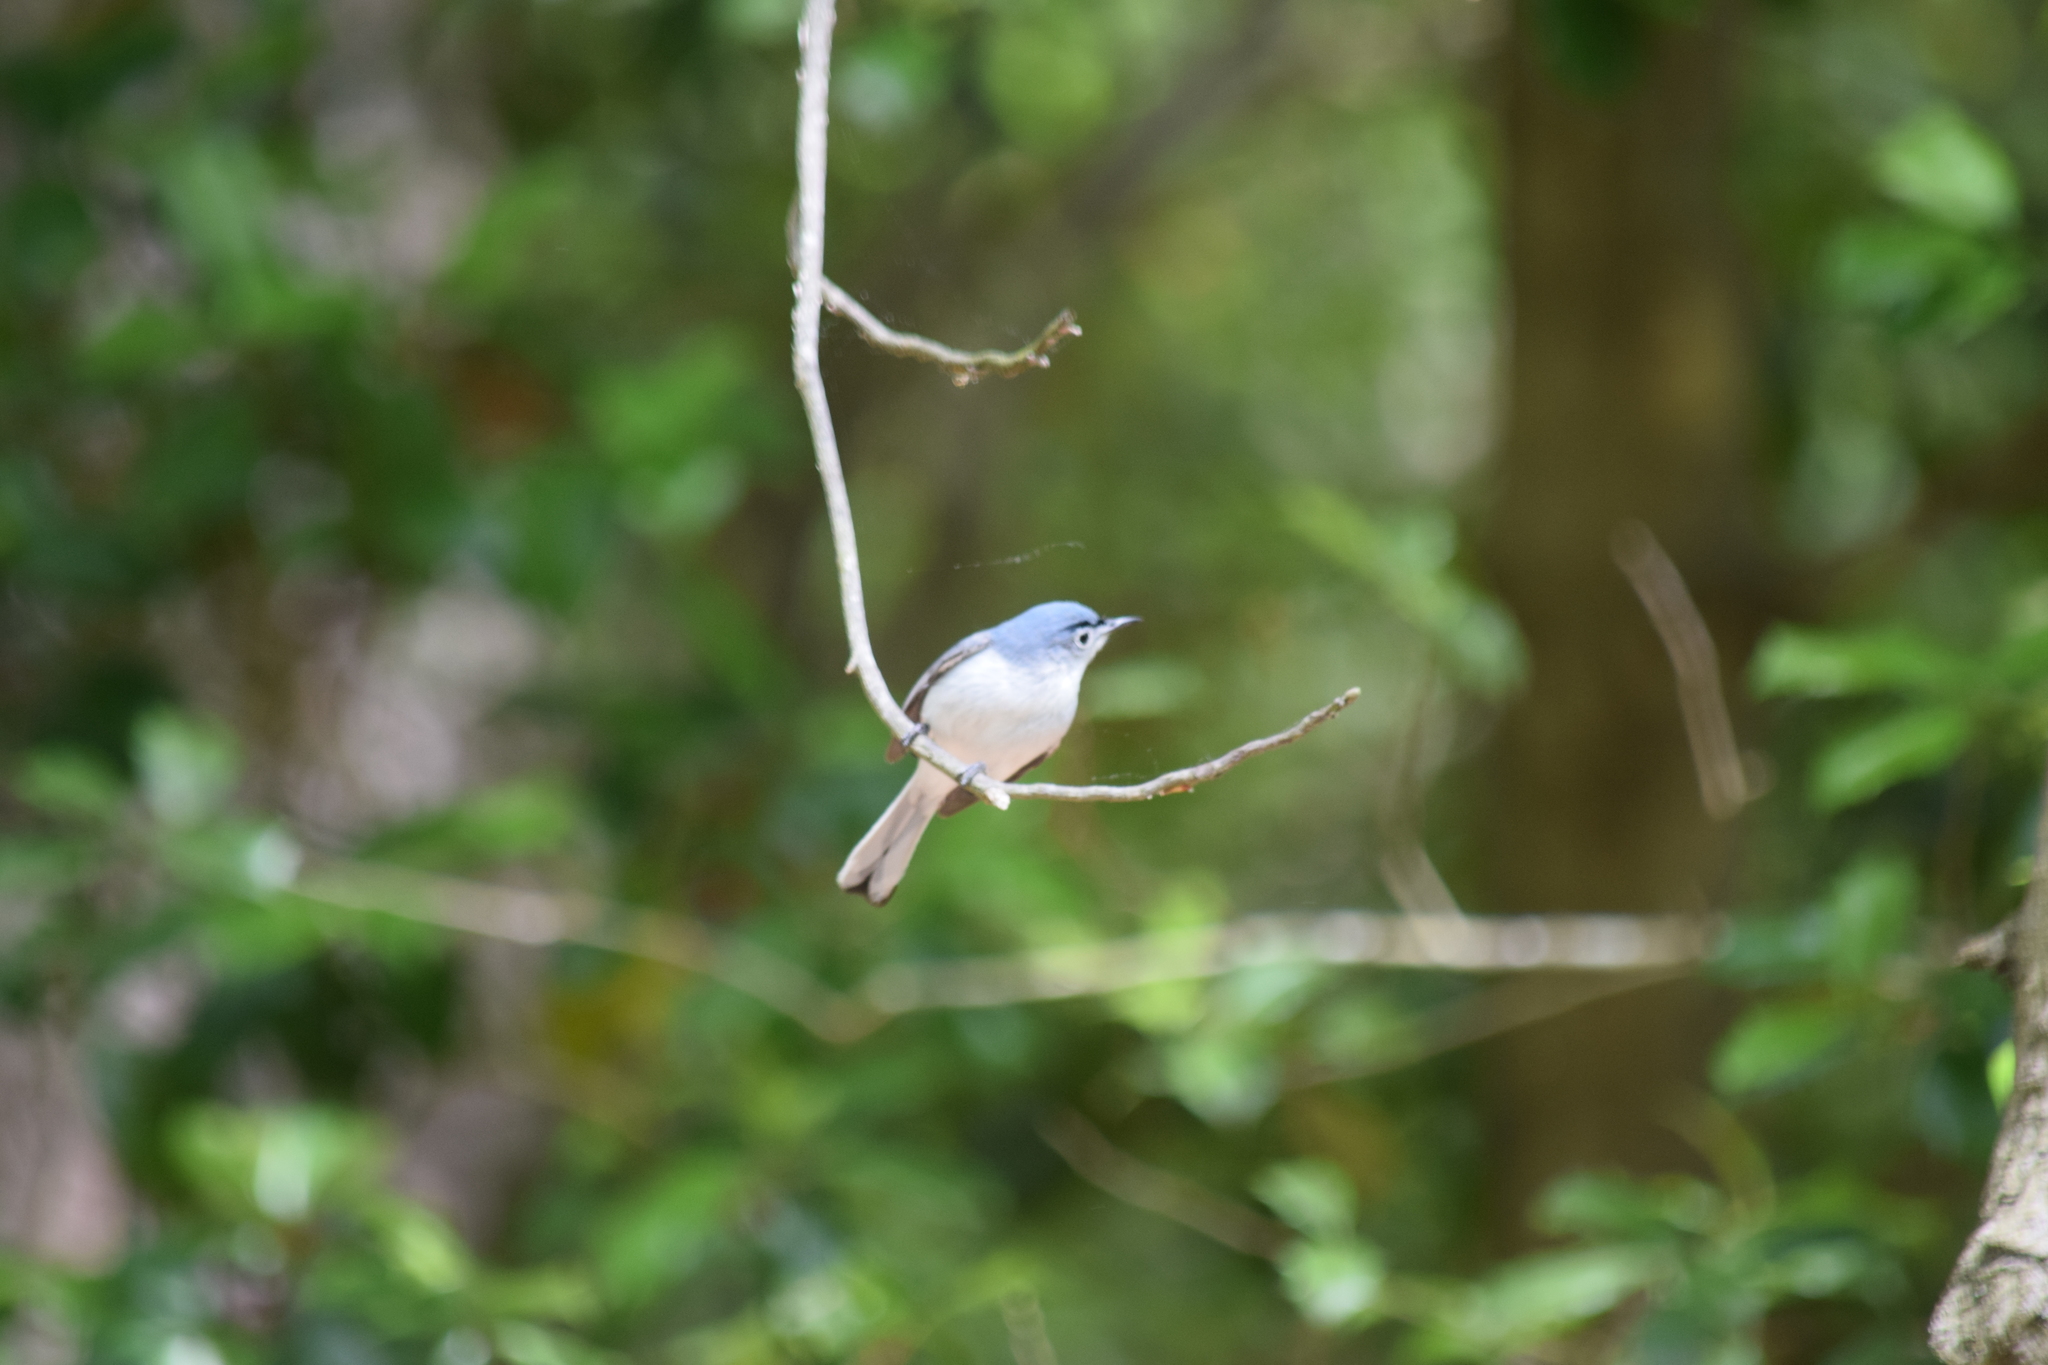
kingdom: Animalia
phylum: Chordata
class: Aves
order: Passeriformes
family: Polioptilidae
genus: Polioptila
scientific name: Polioptila caerulea
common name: Blue-gray gnatcatcher
